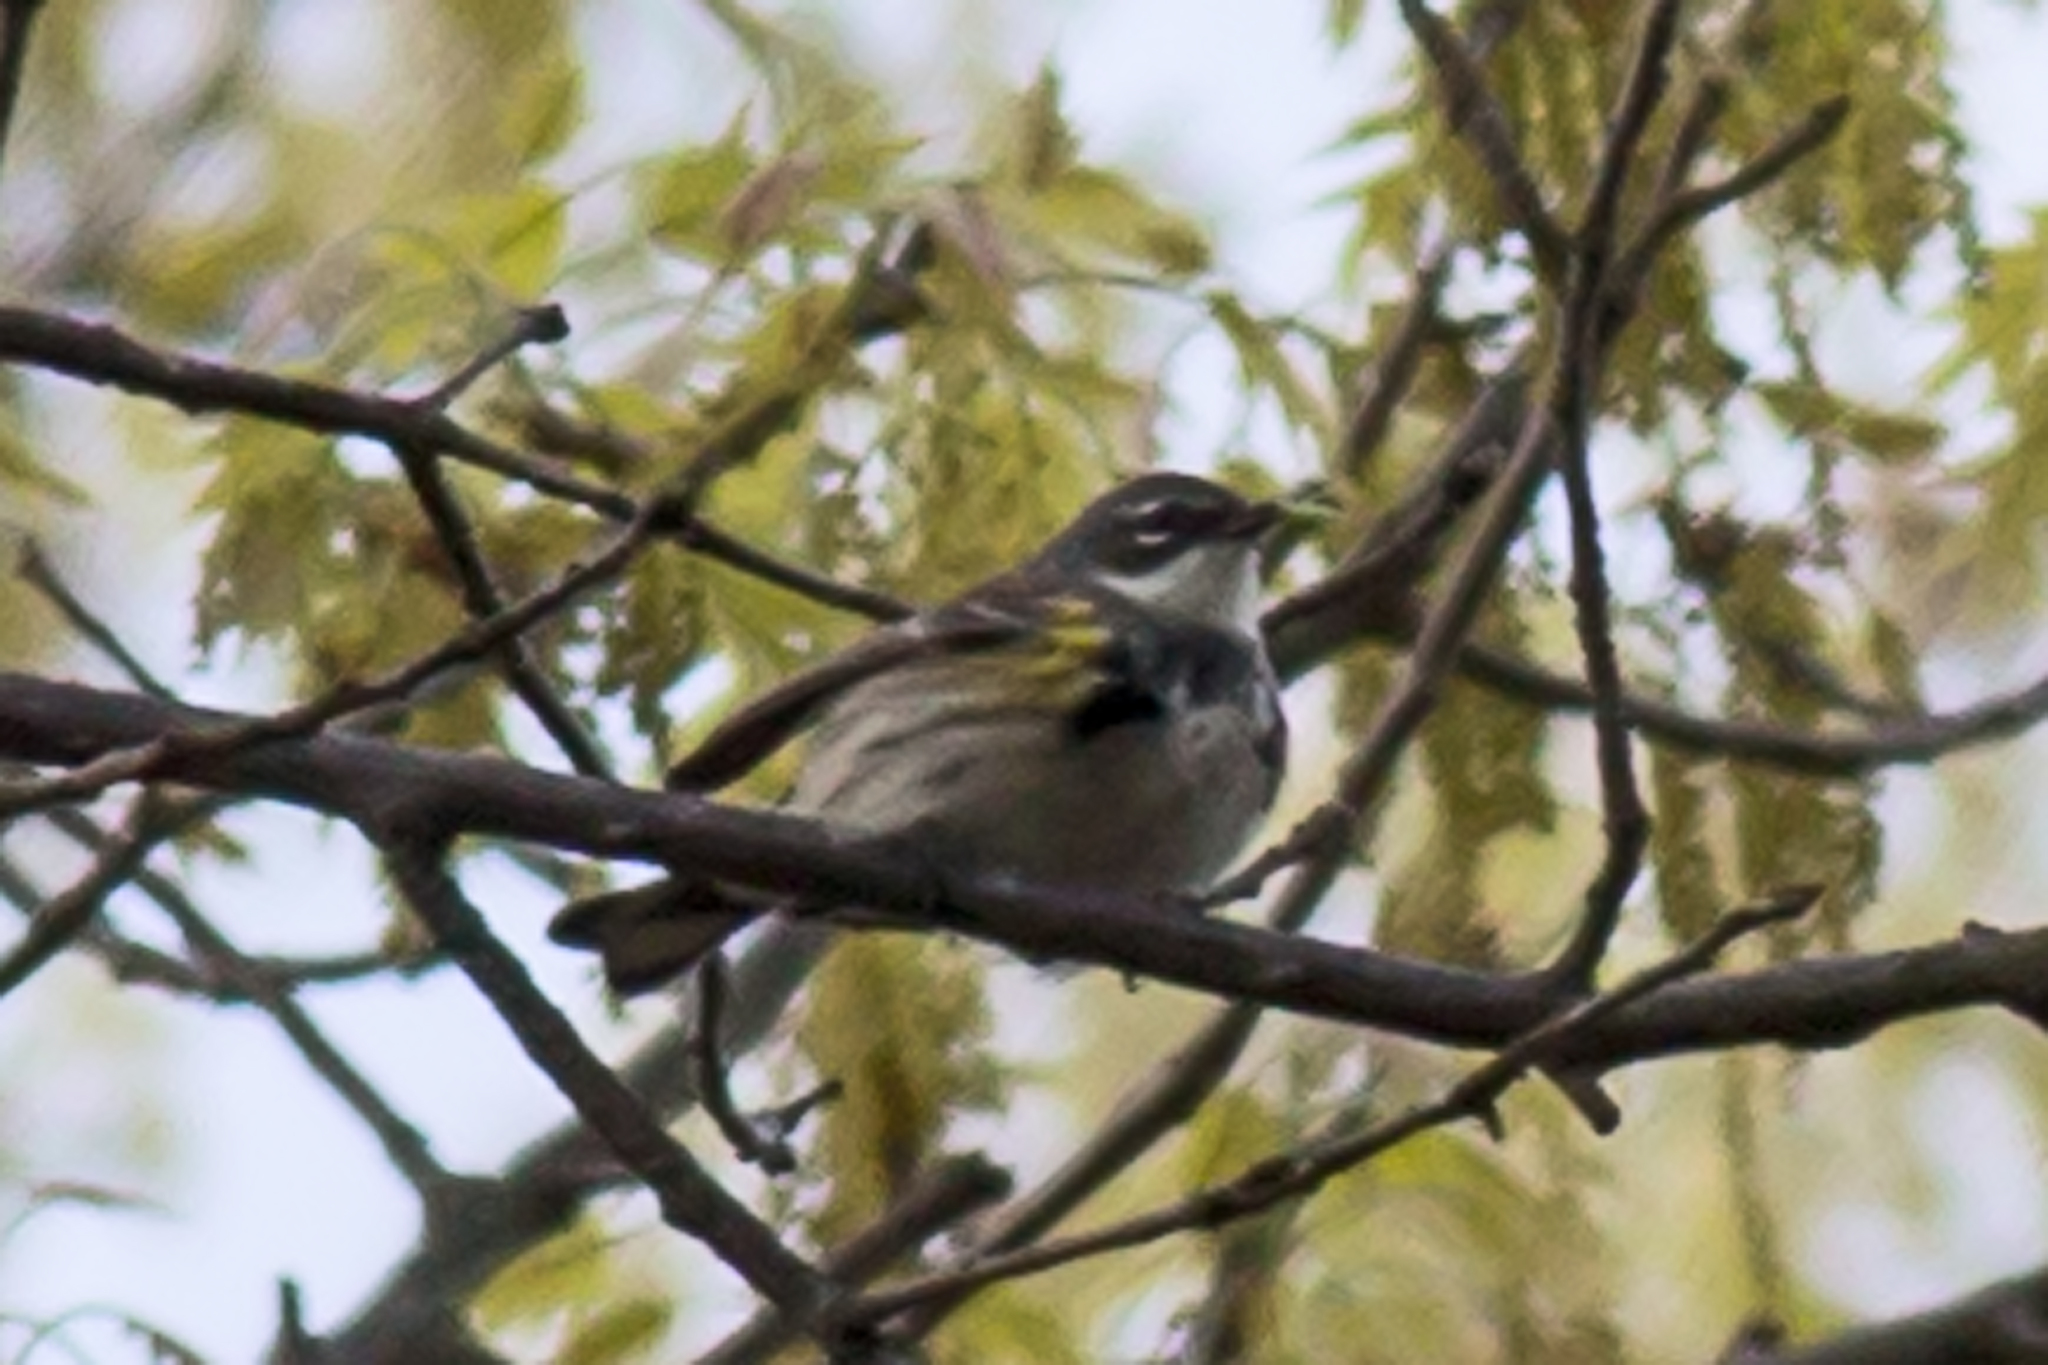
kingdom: Animalia
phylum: Chordata
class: Aves
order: Passeriformes
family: Parulidae
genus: Setophaga
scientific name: Setophaga coronata
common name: Myrtle warbler
